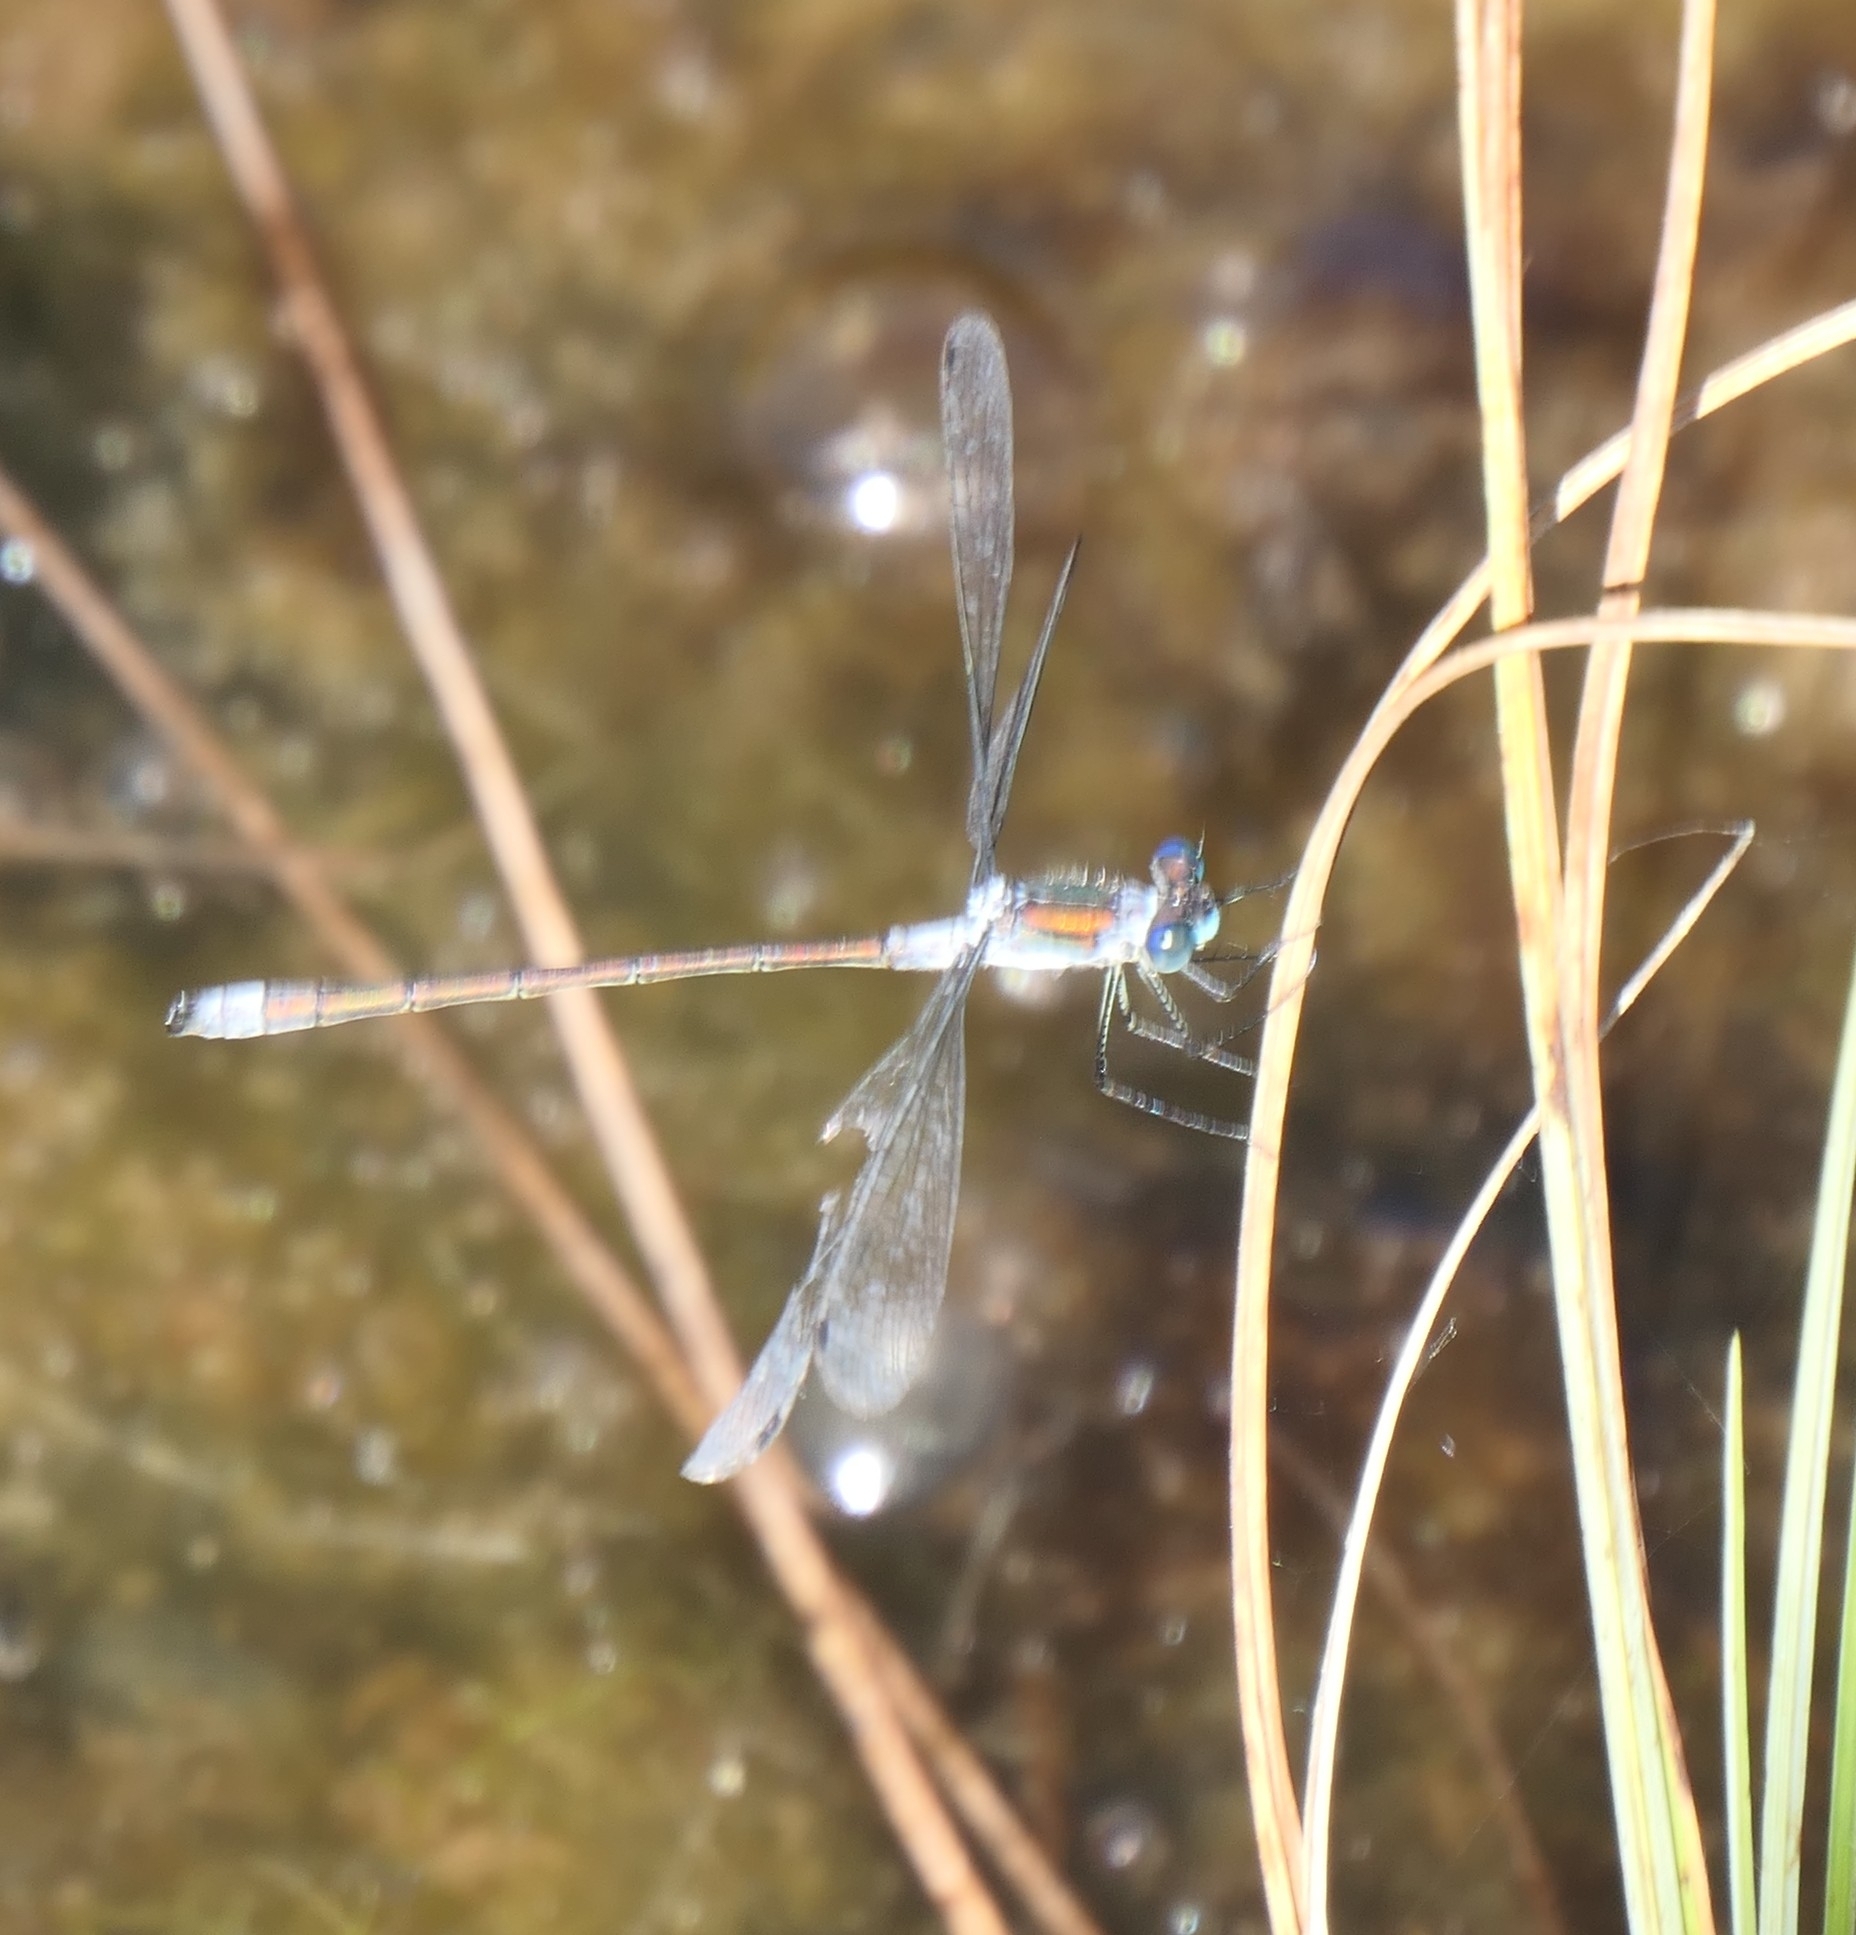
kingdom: Animalia
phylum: Arthropoda
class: Insecta
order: Odonata
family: Lestidae
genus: Lestes
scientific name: Lestes sponsa
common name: Common spreadwing
